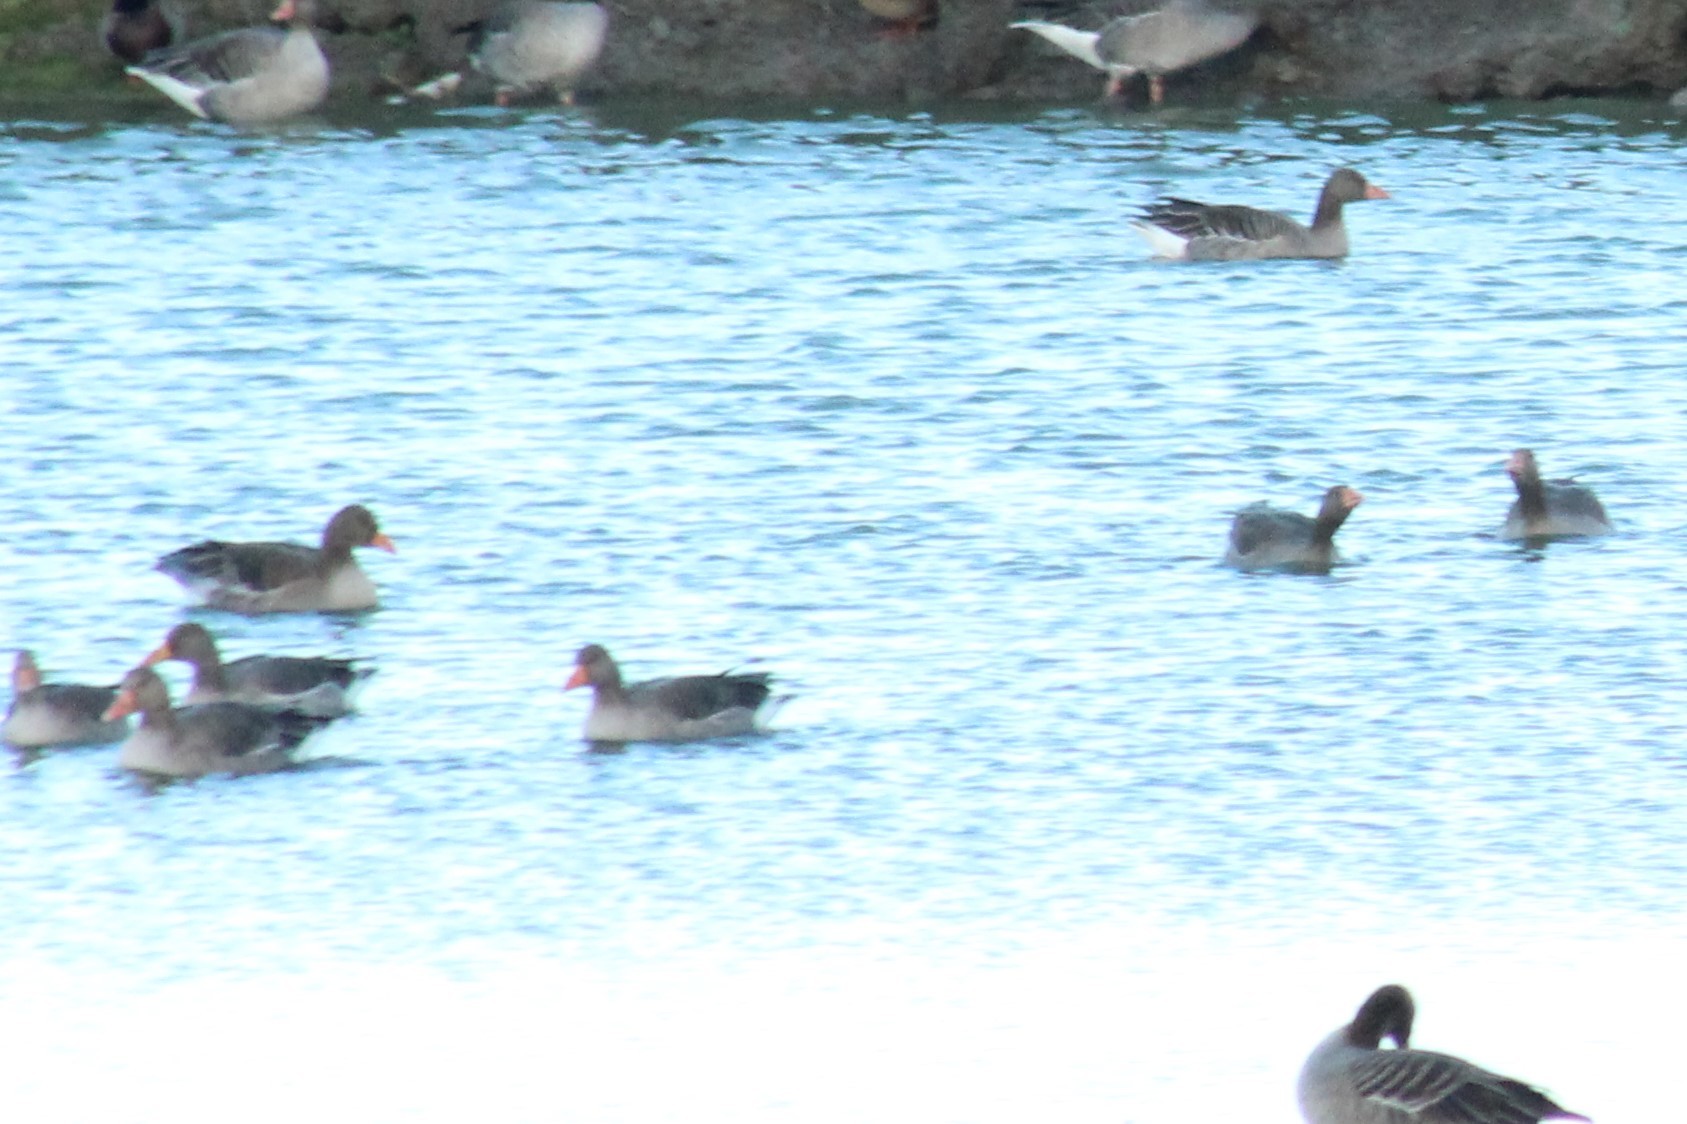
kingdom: Animalia
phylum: Chordata
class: Aves
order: Anseriformes
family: Anatidae
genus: Anser
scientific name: Anser anser
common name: Greylag goose
